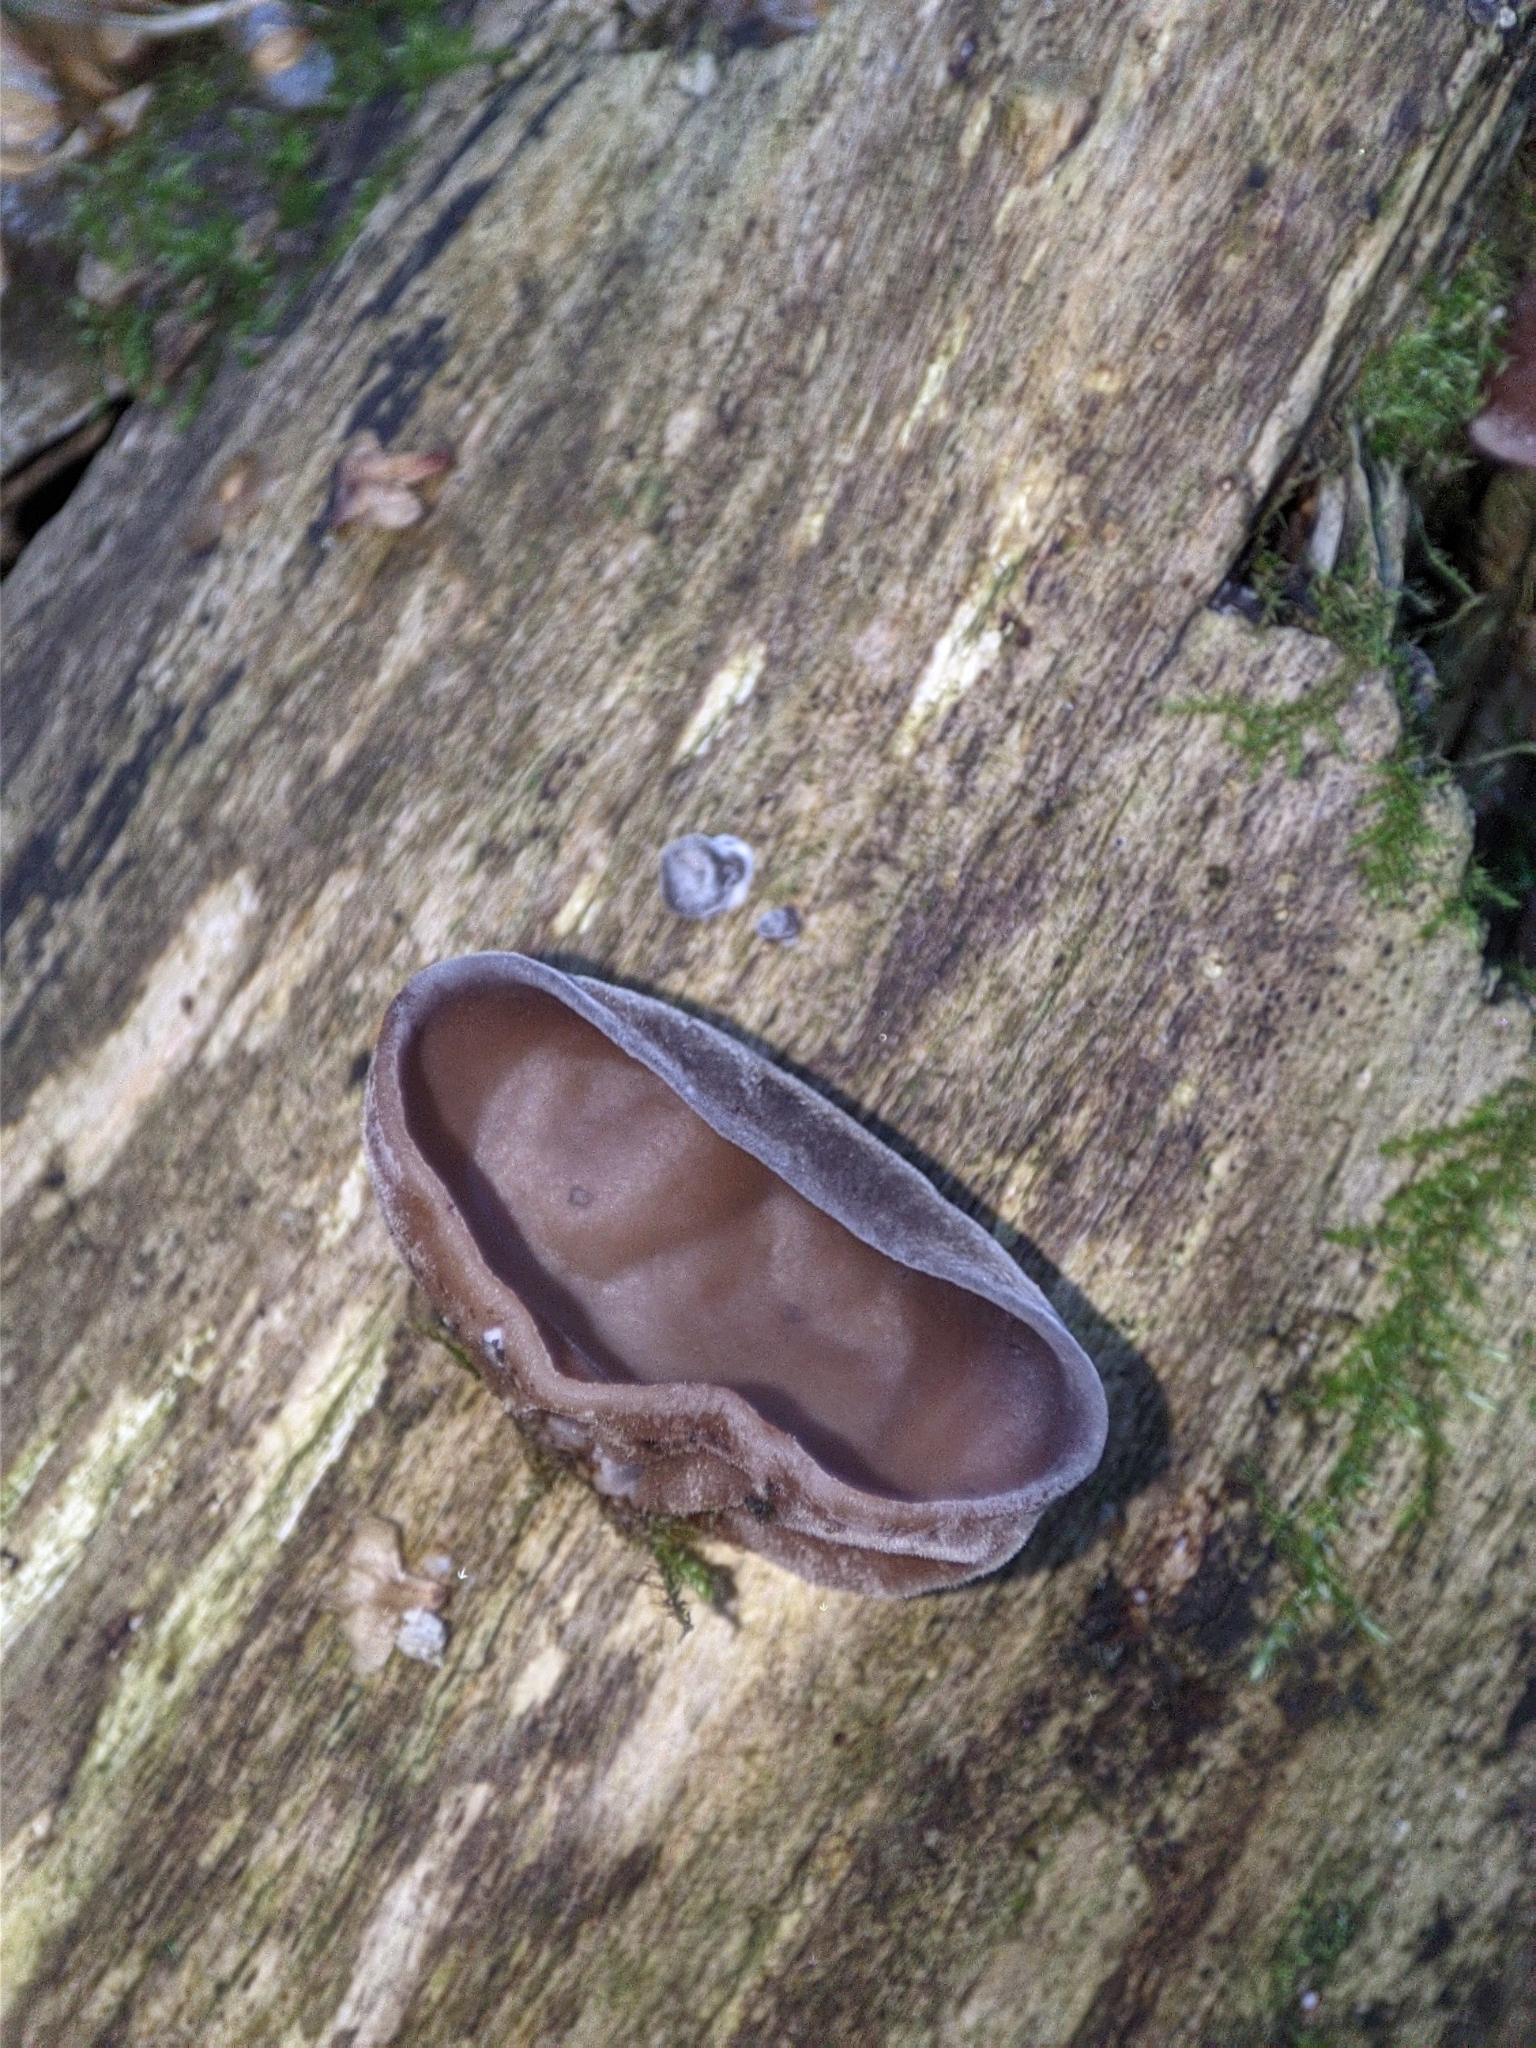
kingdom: Fungi
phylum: Basidiomycota
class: Agaricomycetes
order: Auriculariales
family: Auriculariaceae
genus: Auricularia
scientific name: Auricularia auricula-judae
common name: Jelly ear
